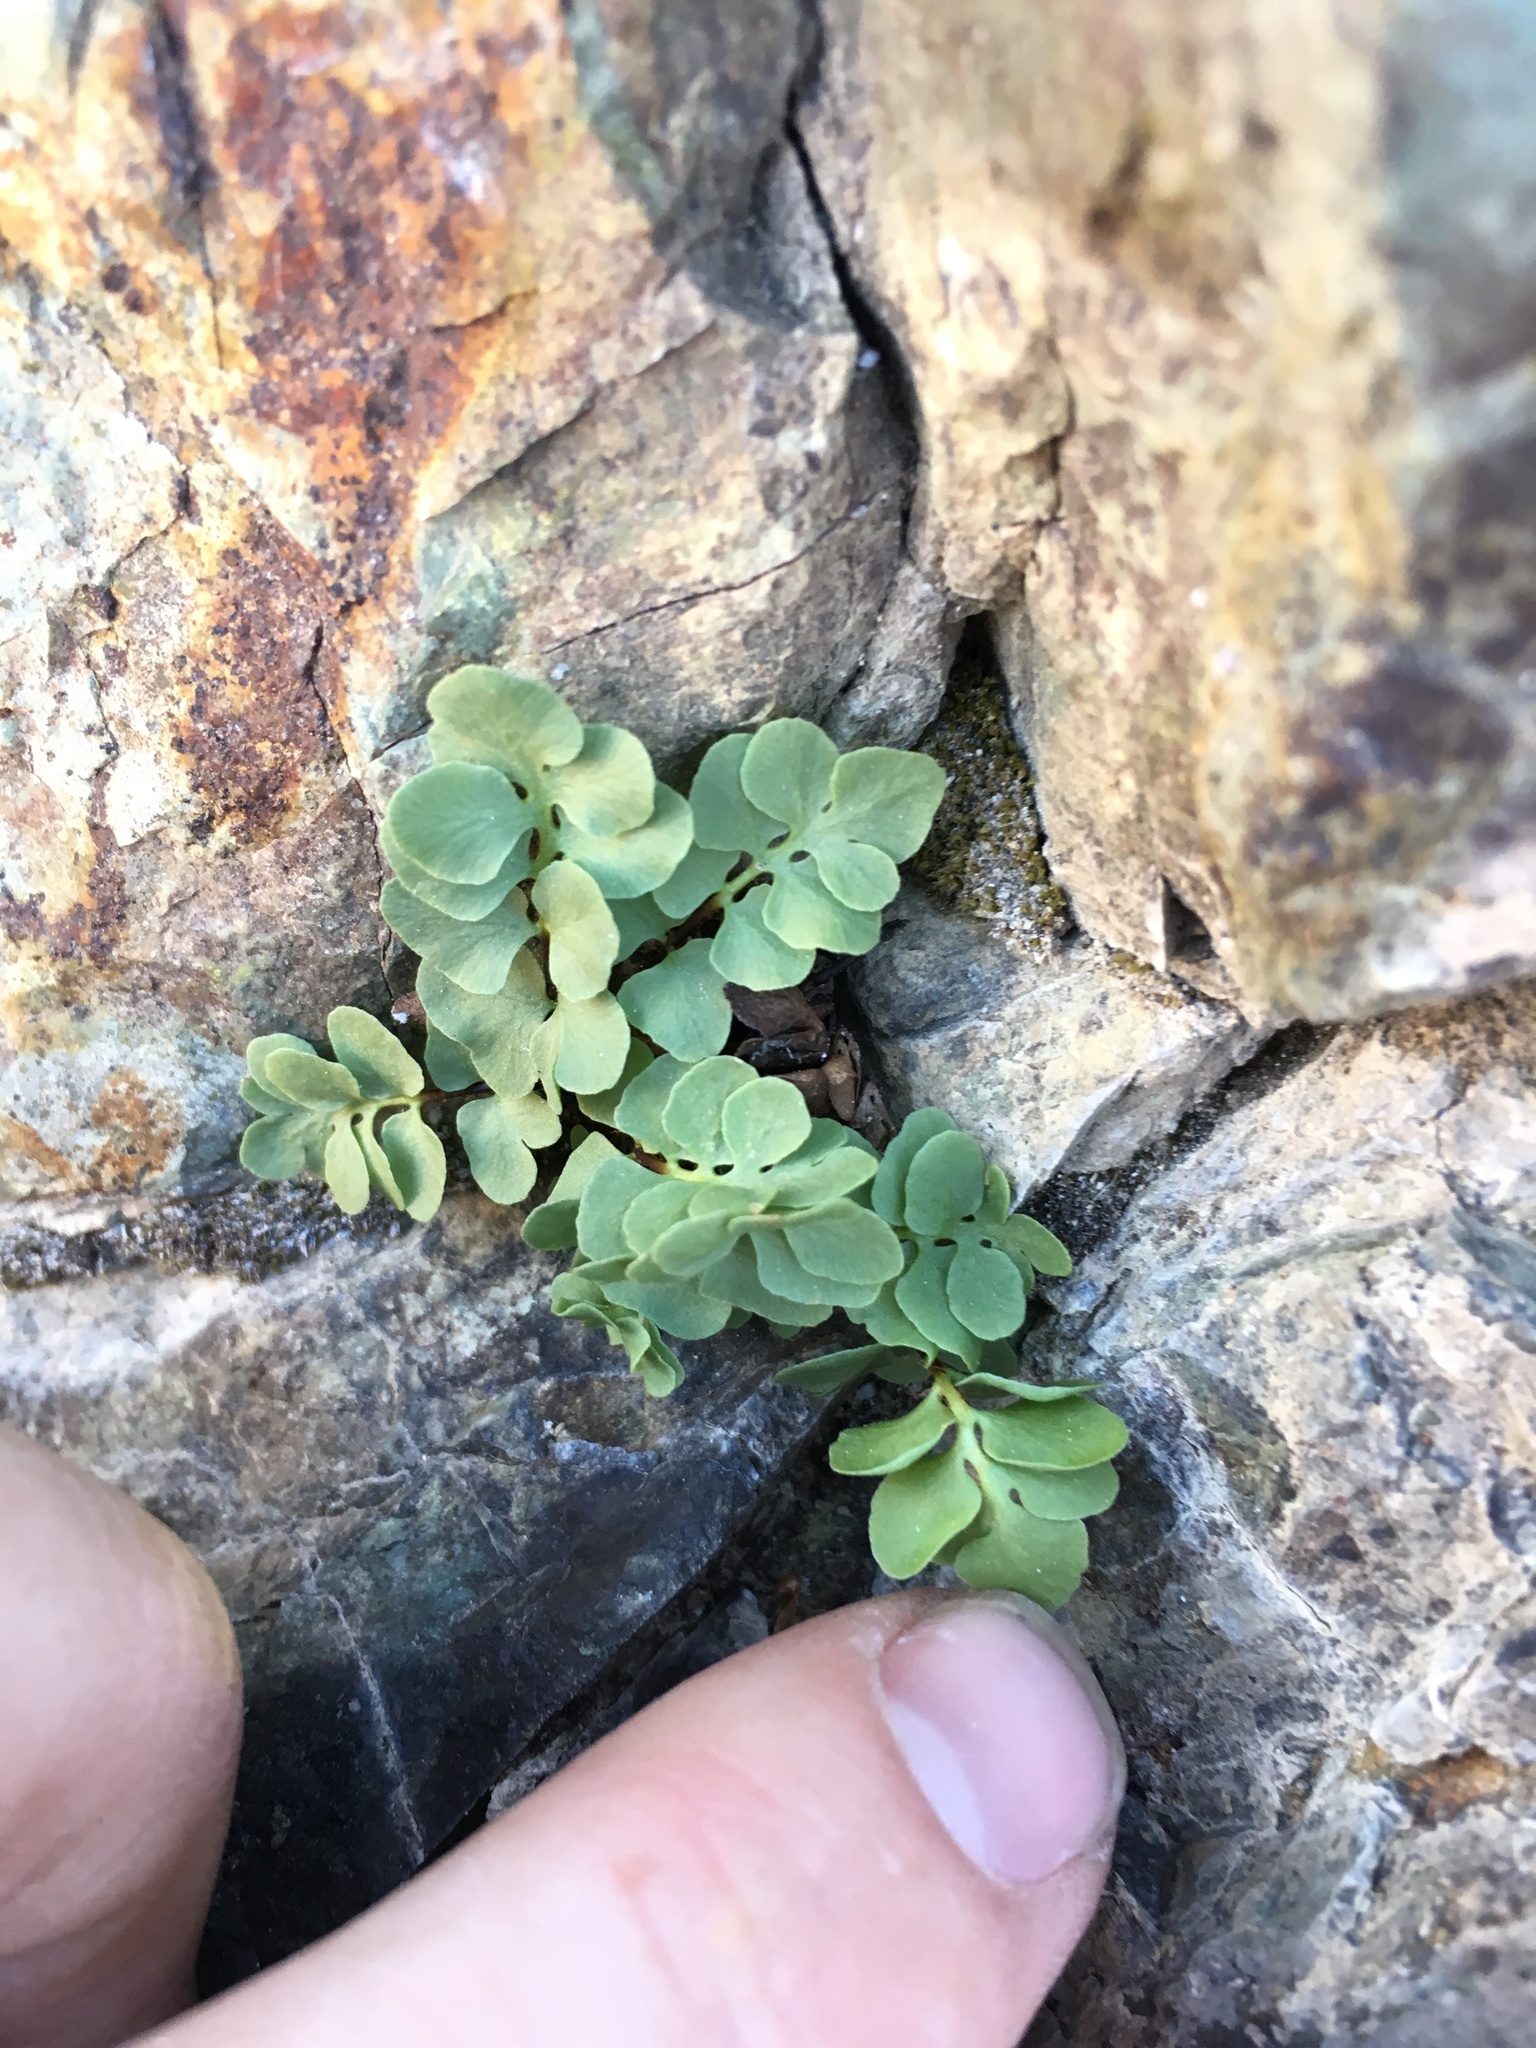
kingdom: Plantae
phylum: Tracheophyta
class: Polypodiopsida
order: Polypodiales
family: Pteridaceae
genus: Pellaea
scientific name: Pellaea breweri
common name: Brewer's cliffbrake
